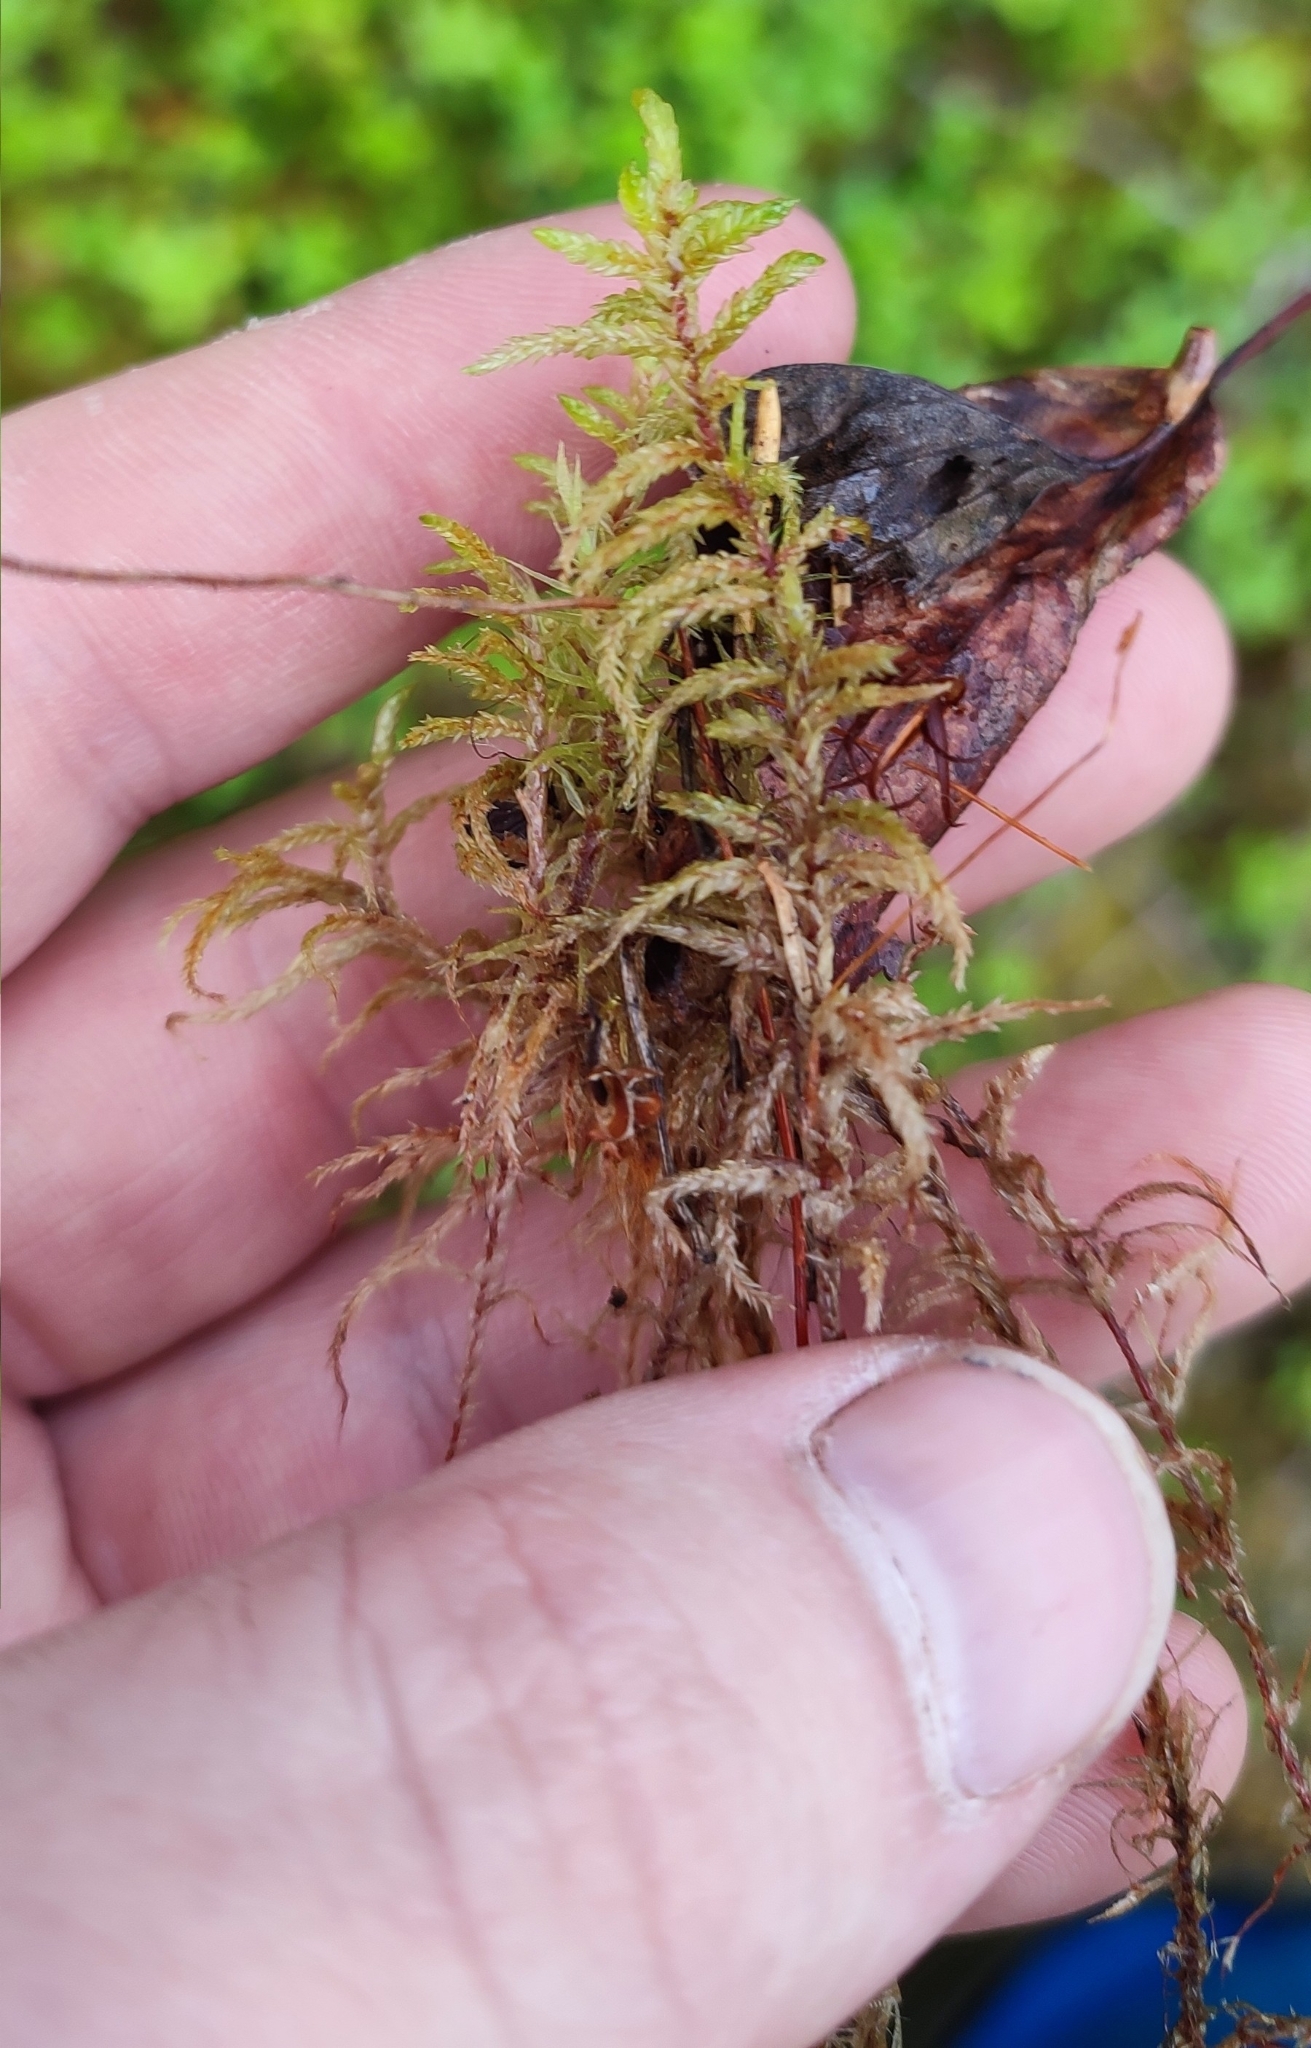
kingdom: Plantae
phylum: Bryophyta
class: Bryopsida
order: Hypnales
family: Hylocomiaceae
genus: Pleurozium
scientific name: Pleurozium schreberi
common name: Red-stemmed feather moss
